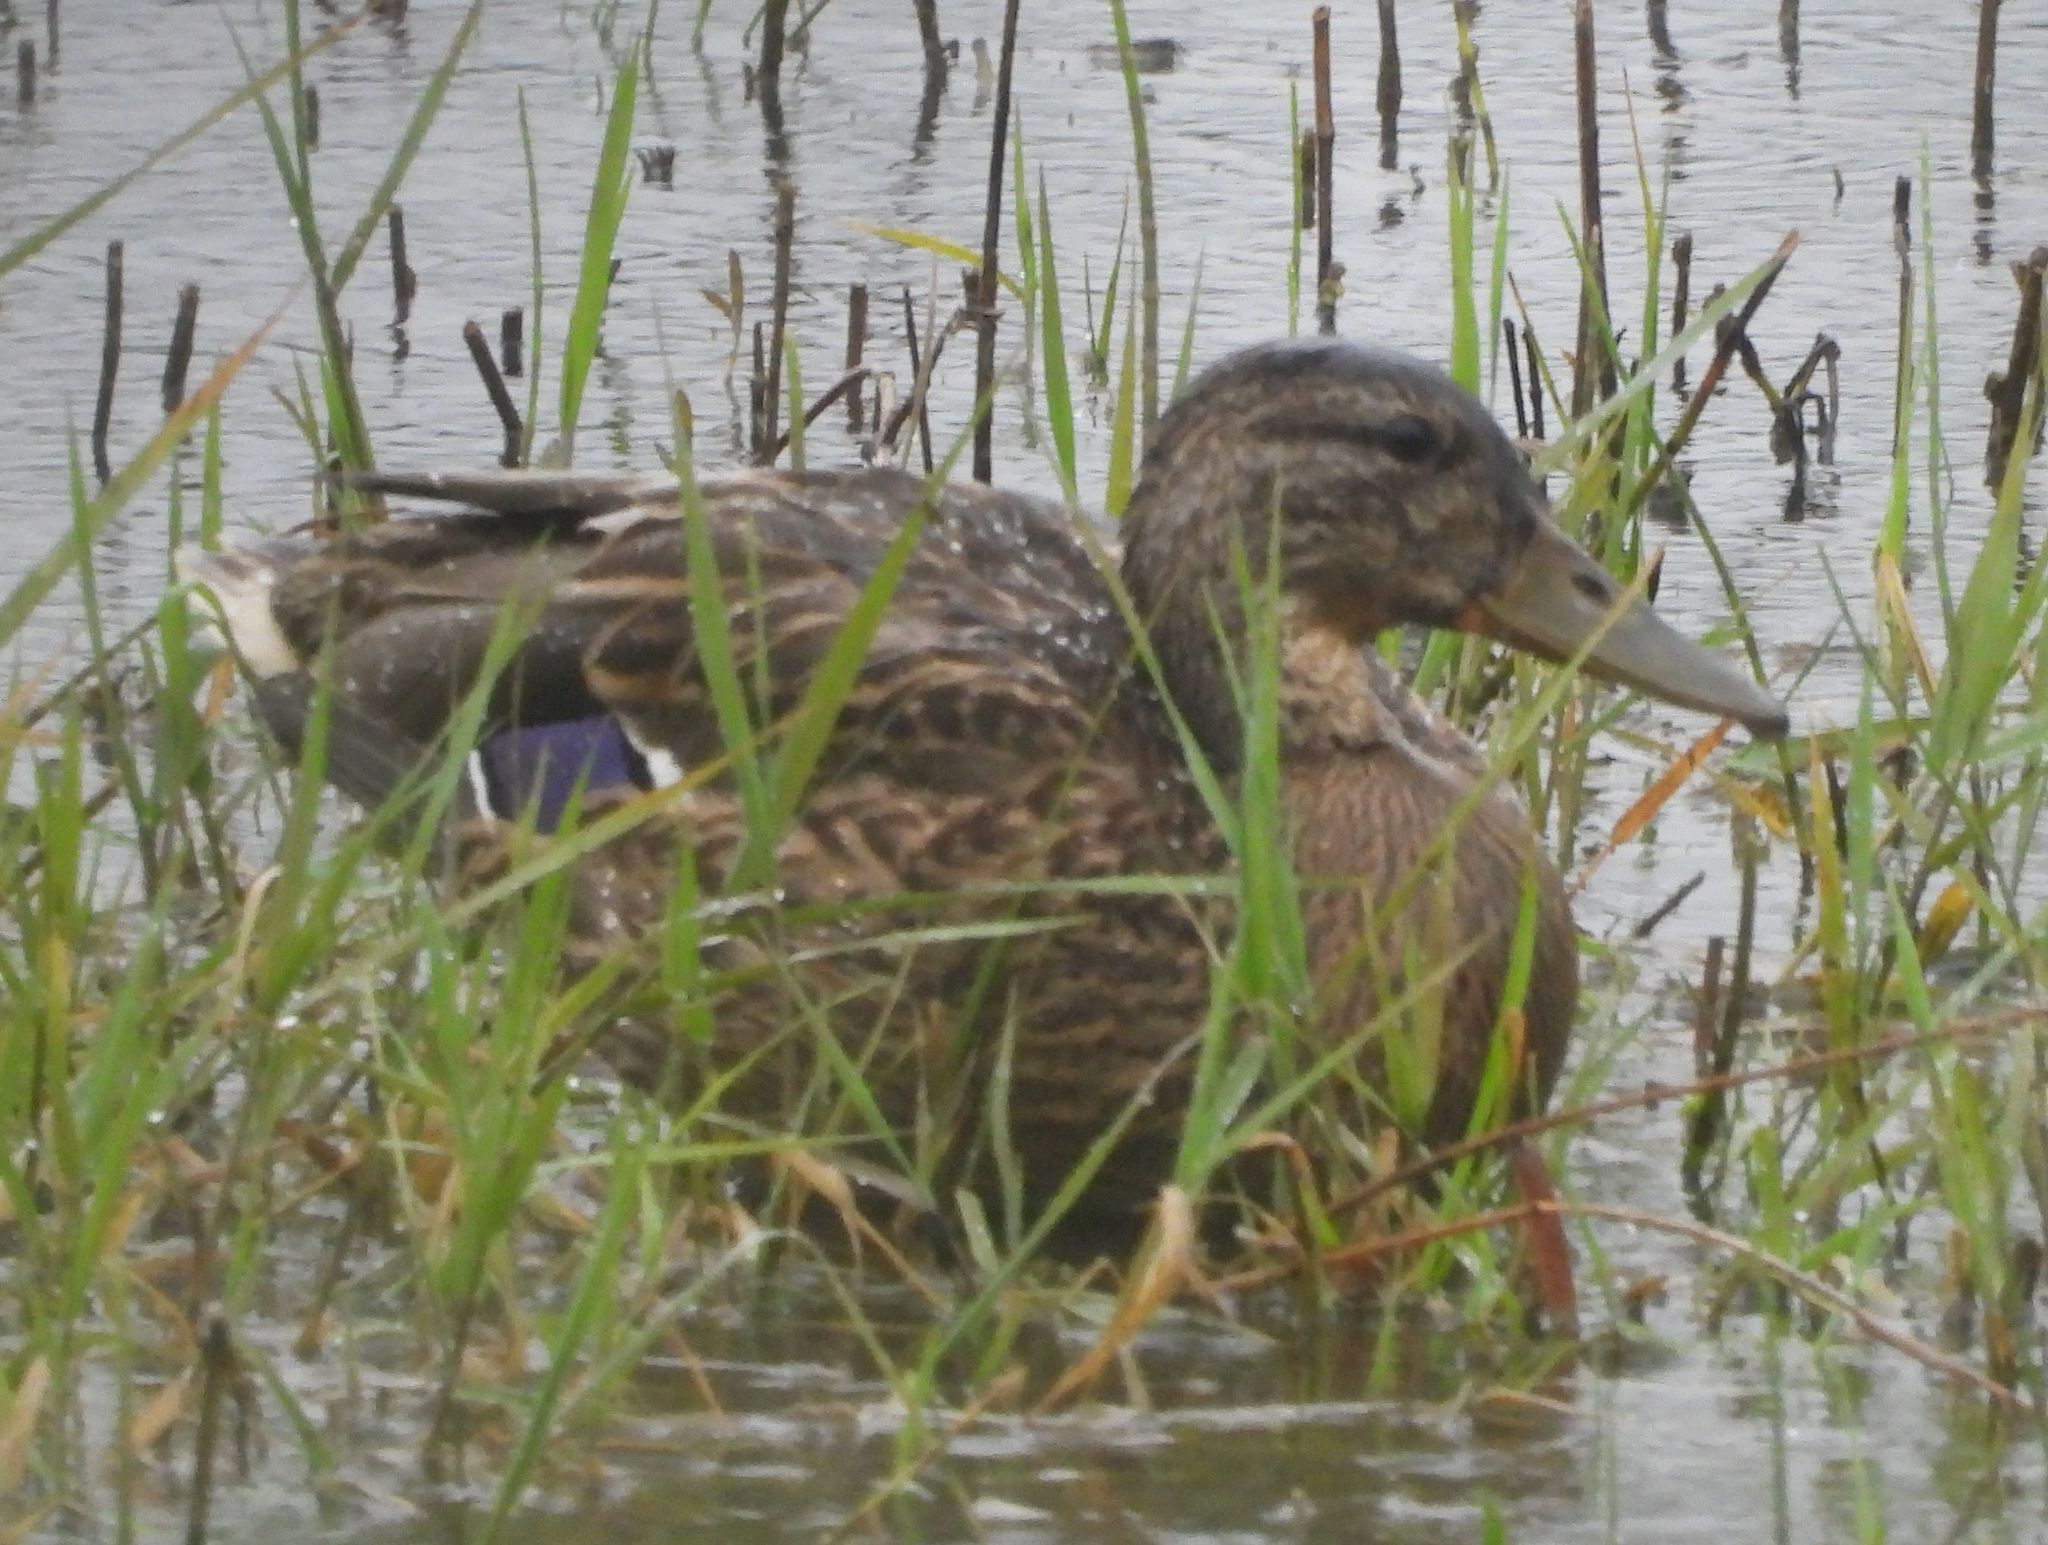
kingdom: Animalia
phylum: Chordata
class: Aves
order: Anseriformes
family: Anatidae
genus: Anas
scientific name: Anas platyrhynchos
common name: Mallard
